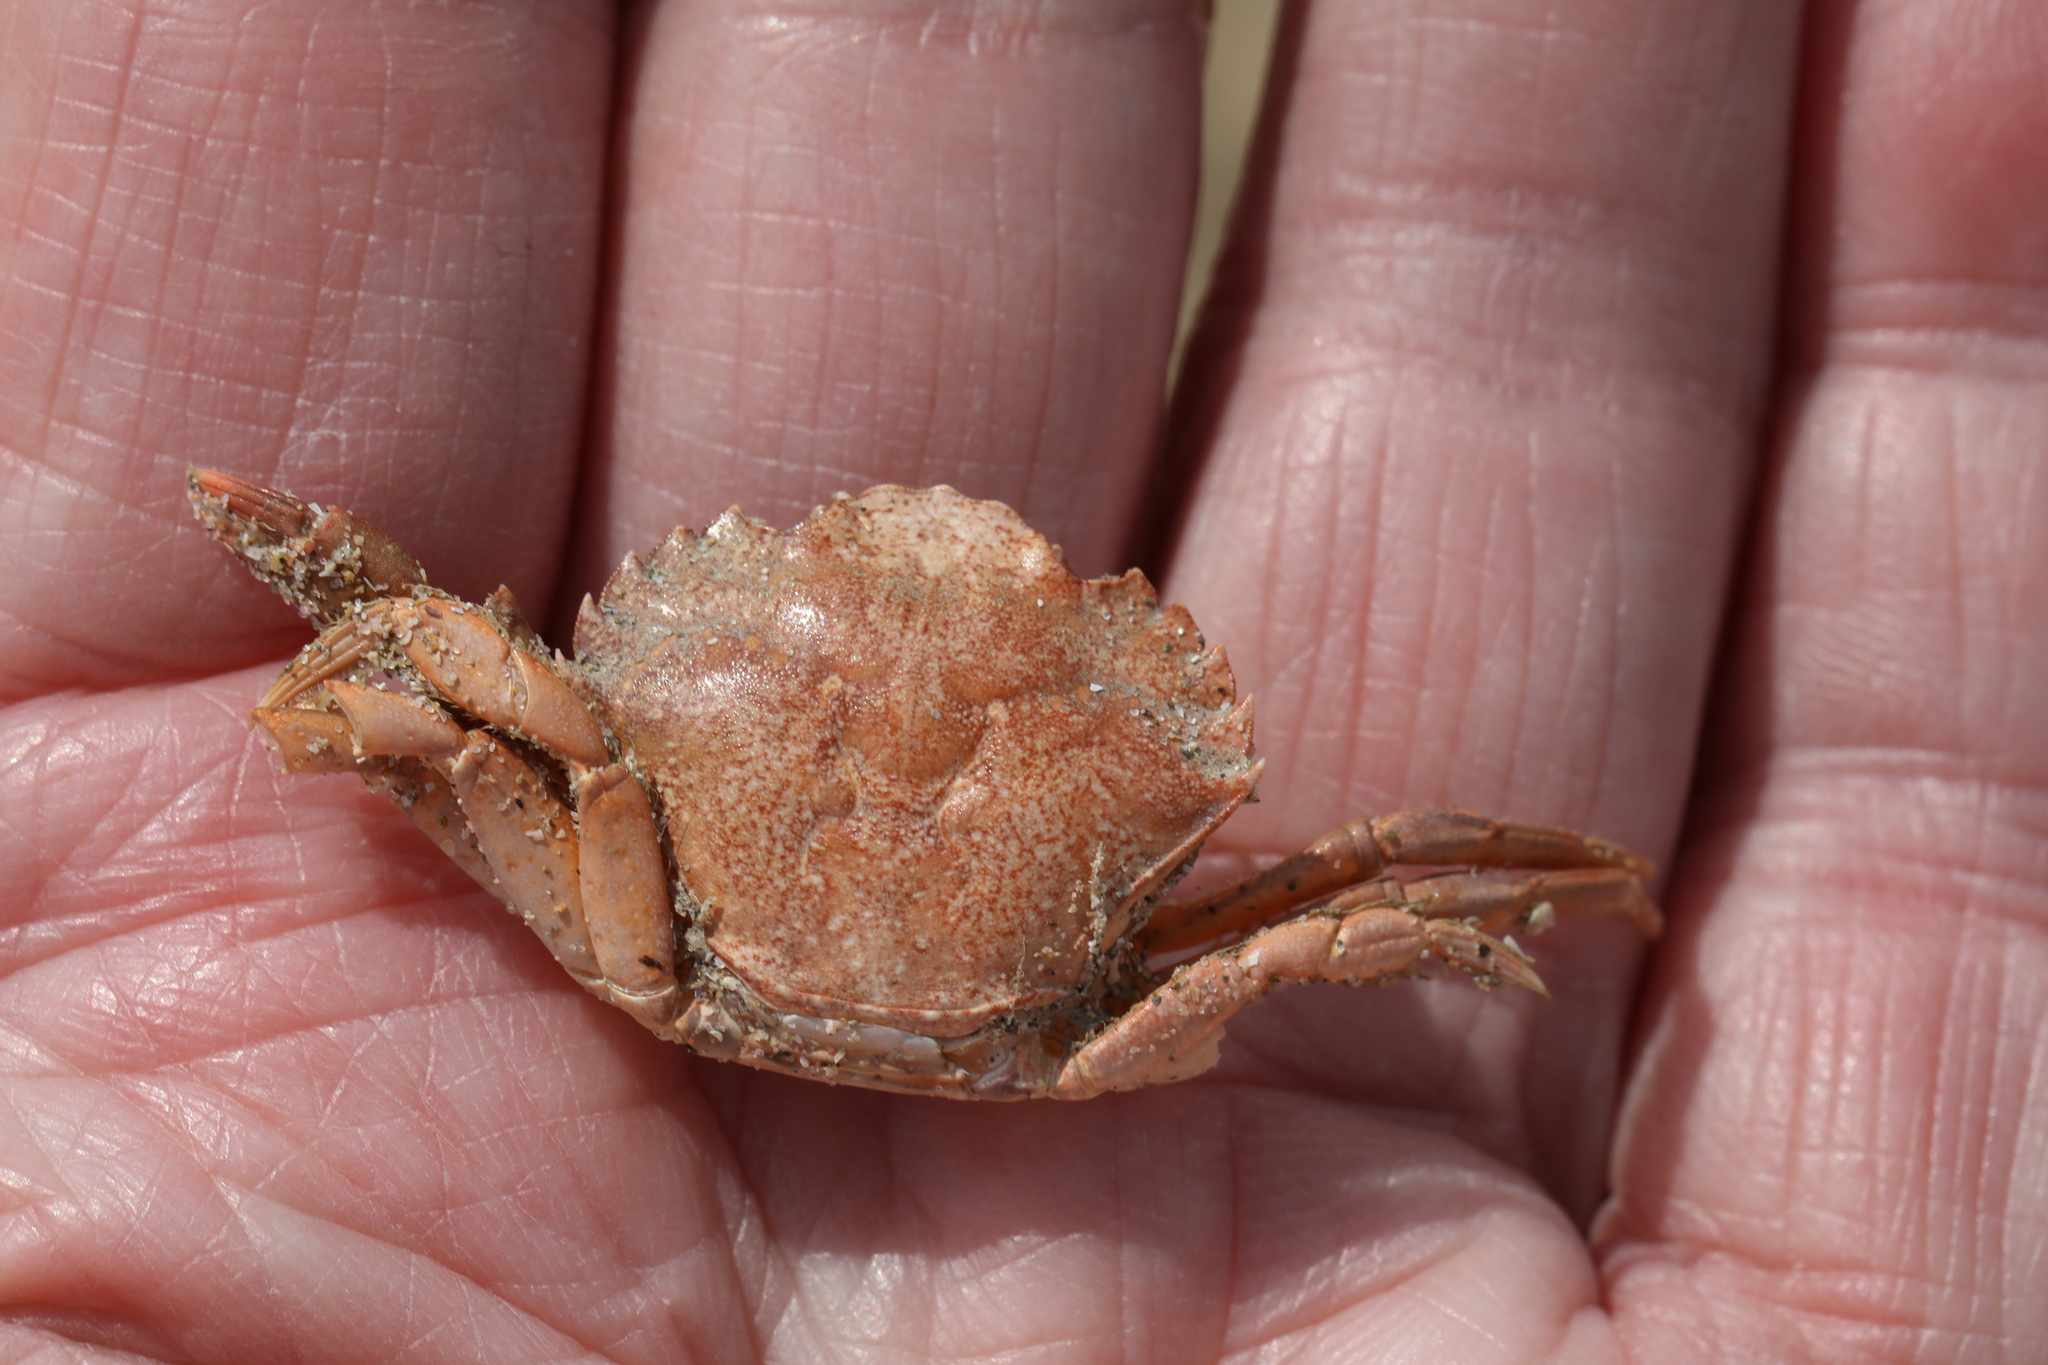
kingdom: Animalia
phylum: Arthropoda
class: Malacostraca
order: Decapoda
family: Carcinidae
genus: Carcinus
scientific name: Carcinus maenas
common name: European green crab
